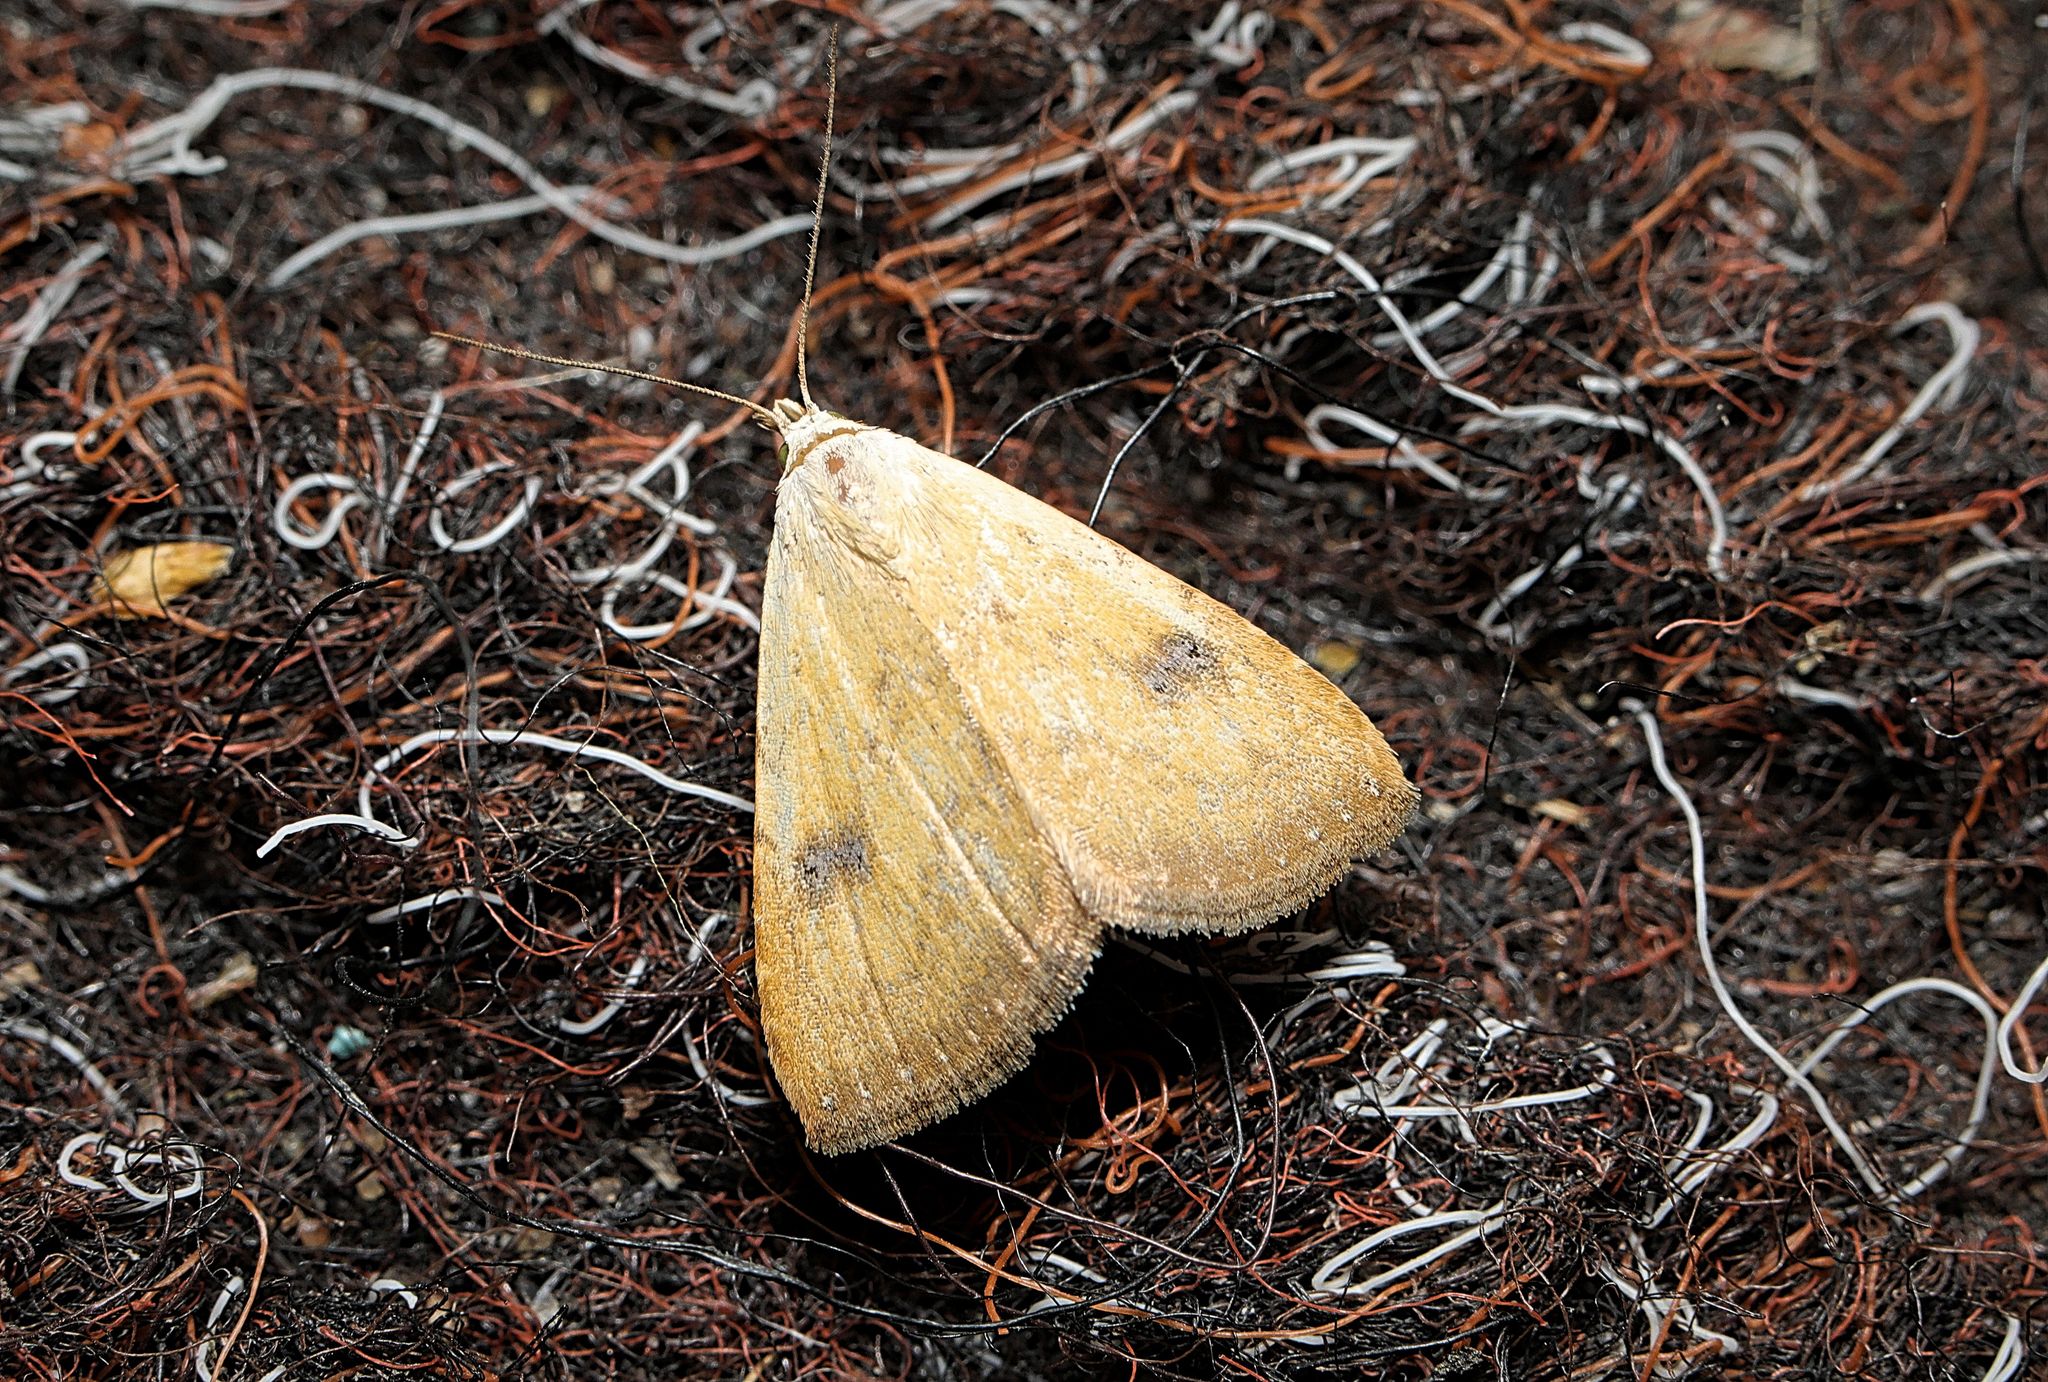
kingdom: Animalia
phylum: Arthropoda
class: Insecta
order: Lepidoptera
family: Erebidae
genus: Rivula
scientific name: Rivula sericealis
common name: Straw dot
